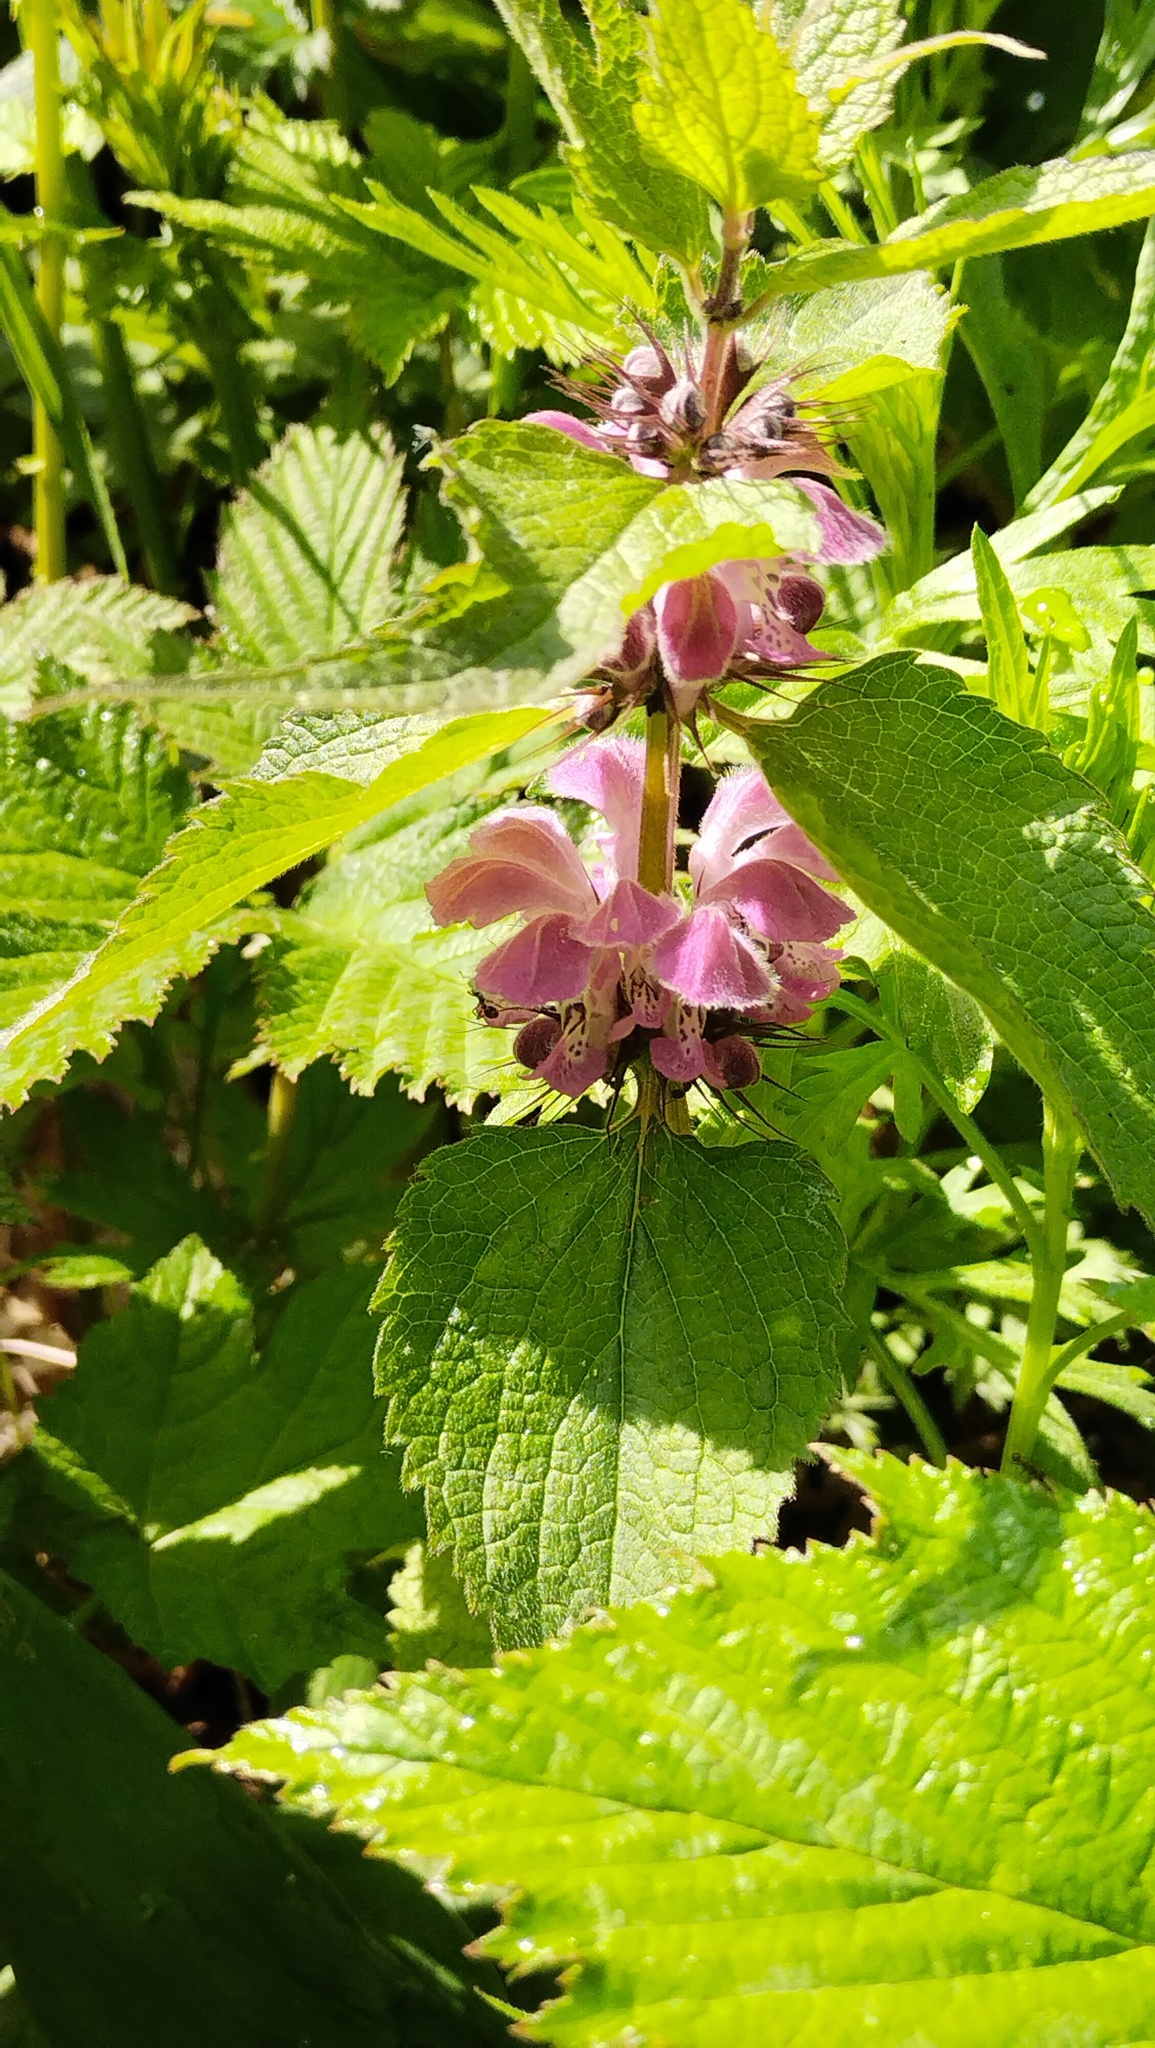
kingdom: Plantae
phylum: Tracheophyta
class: Magnoliopsida
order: Lamiales
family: Lamiaceae
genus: Lamium
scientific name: Lamium album
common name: White dead-nettle
